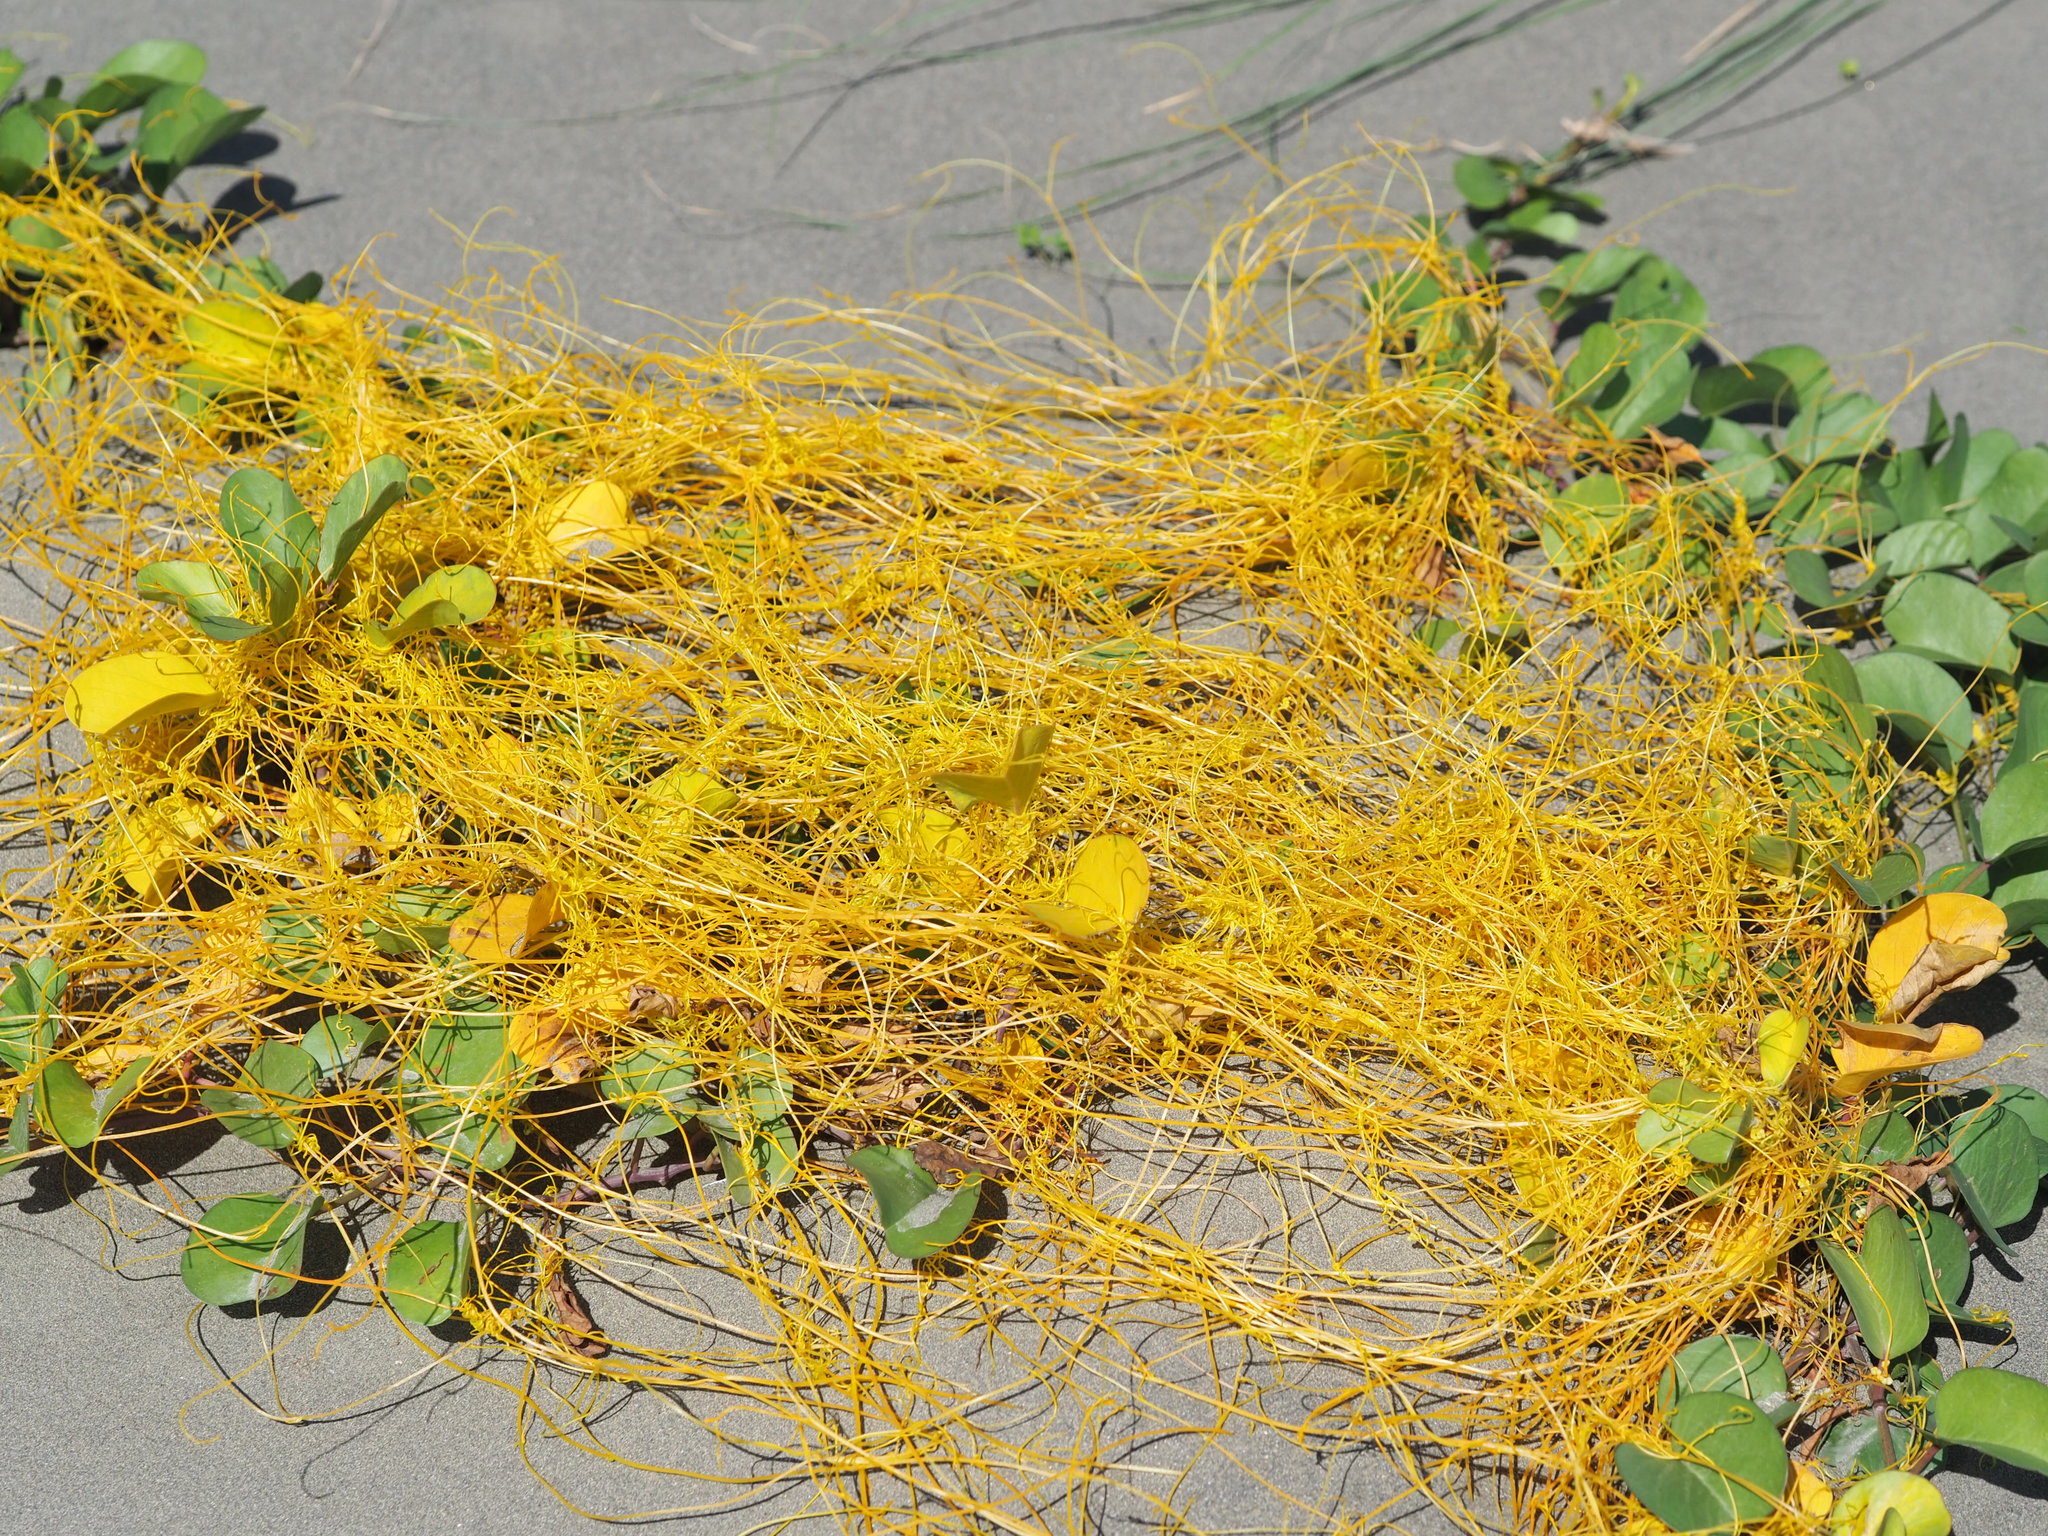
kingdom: Plantae
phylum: Tracheophyta
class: Magnoliopsida
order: Solanales
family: Convolvulaceae
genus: Cuscuta
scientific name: Cuscuta campestris
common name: Yellow dodder
